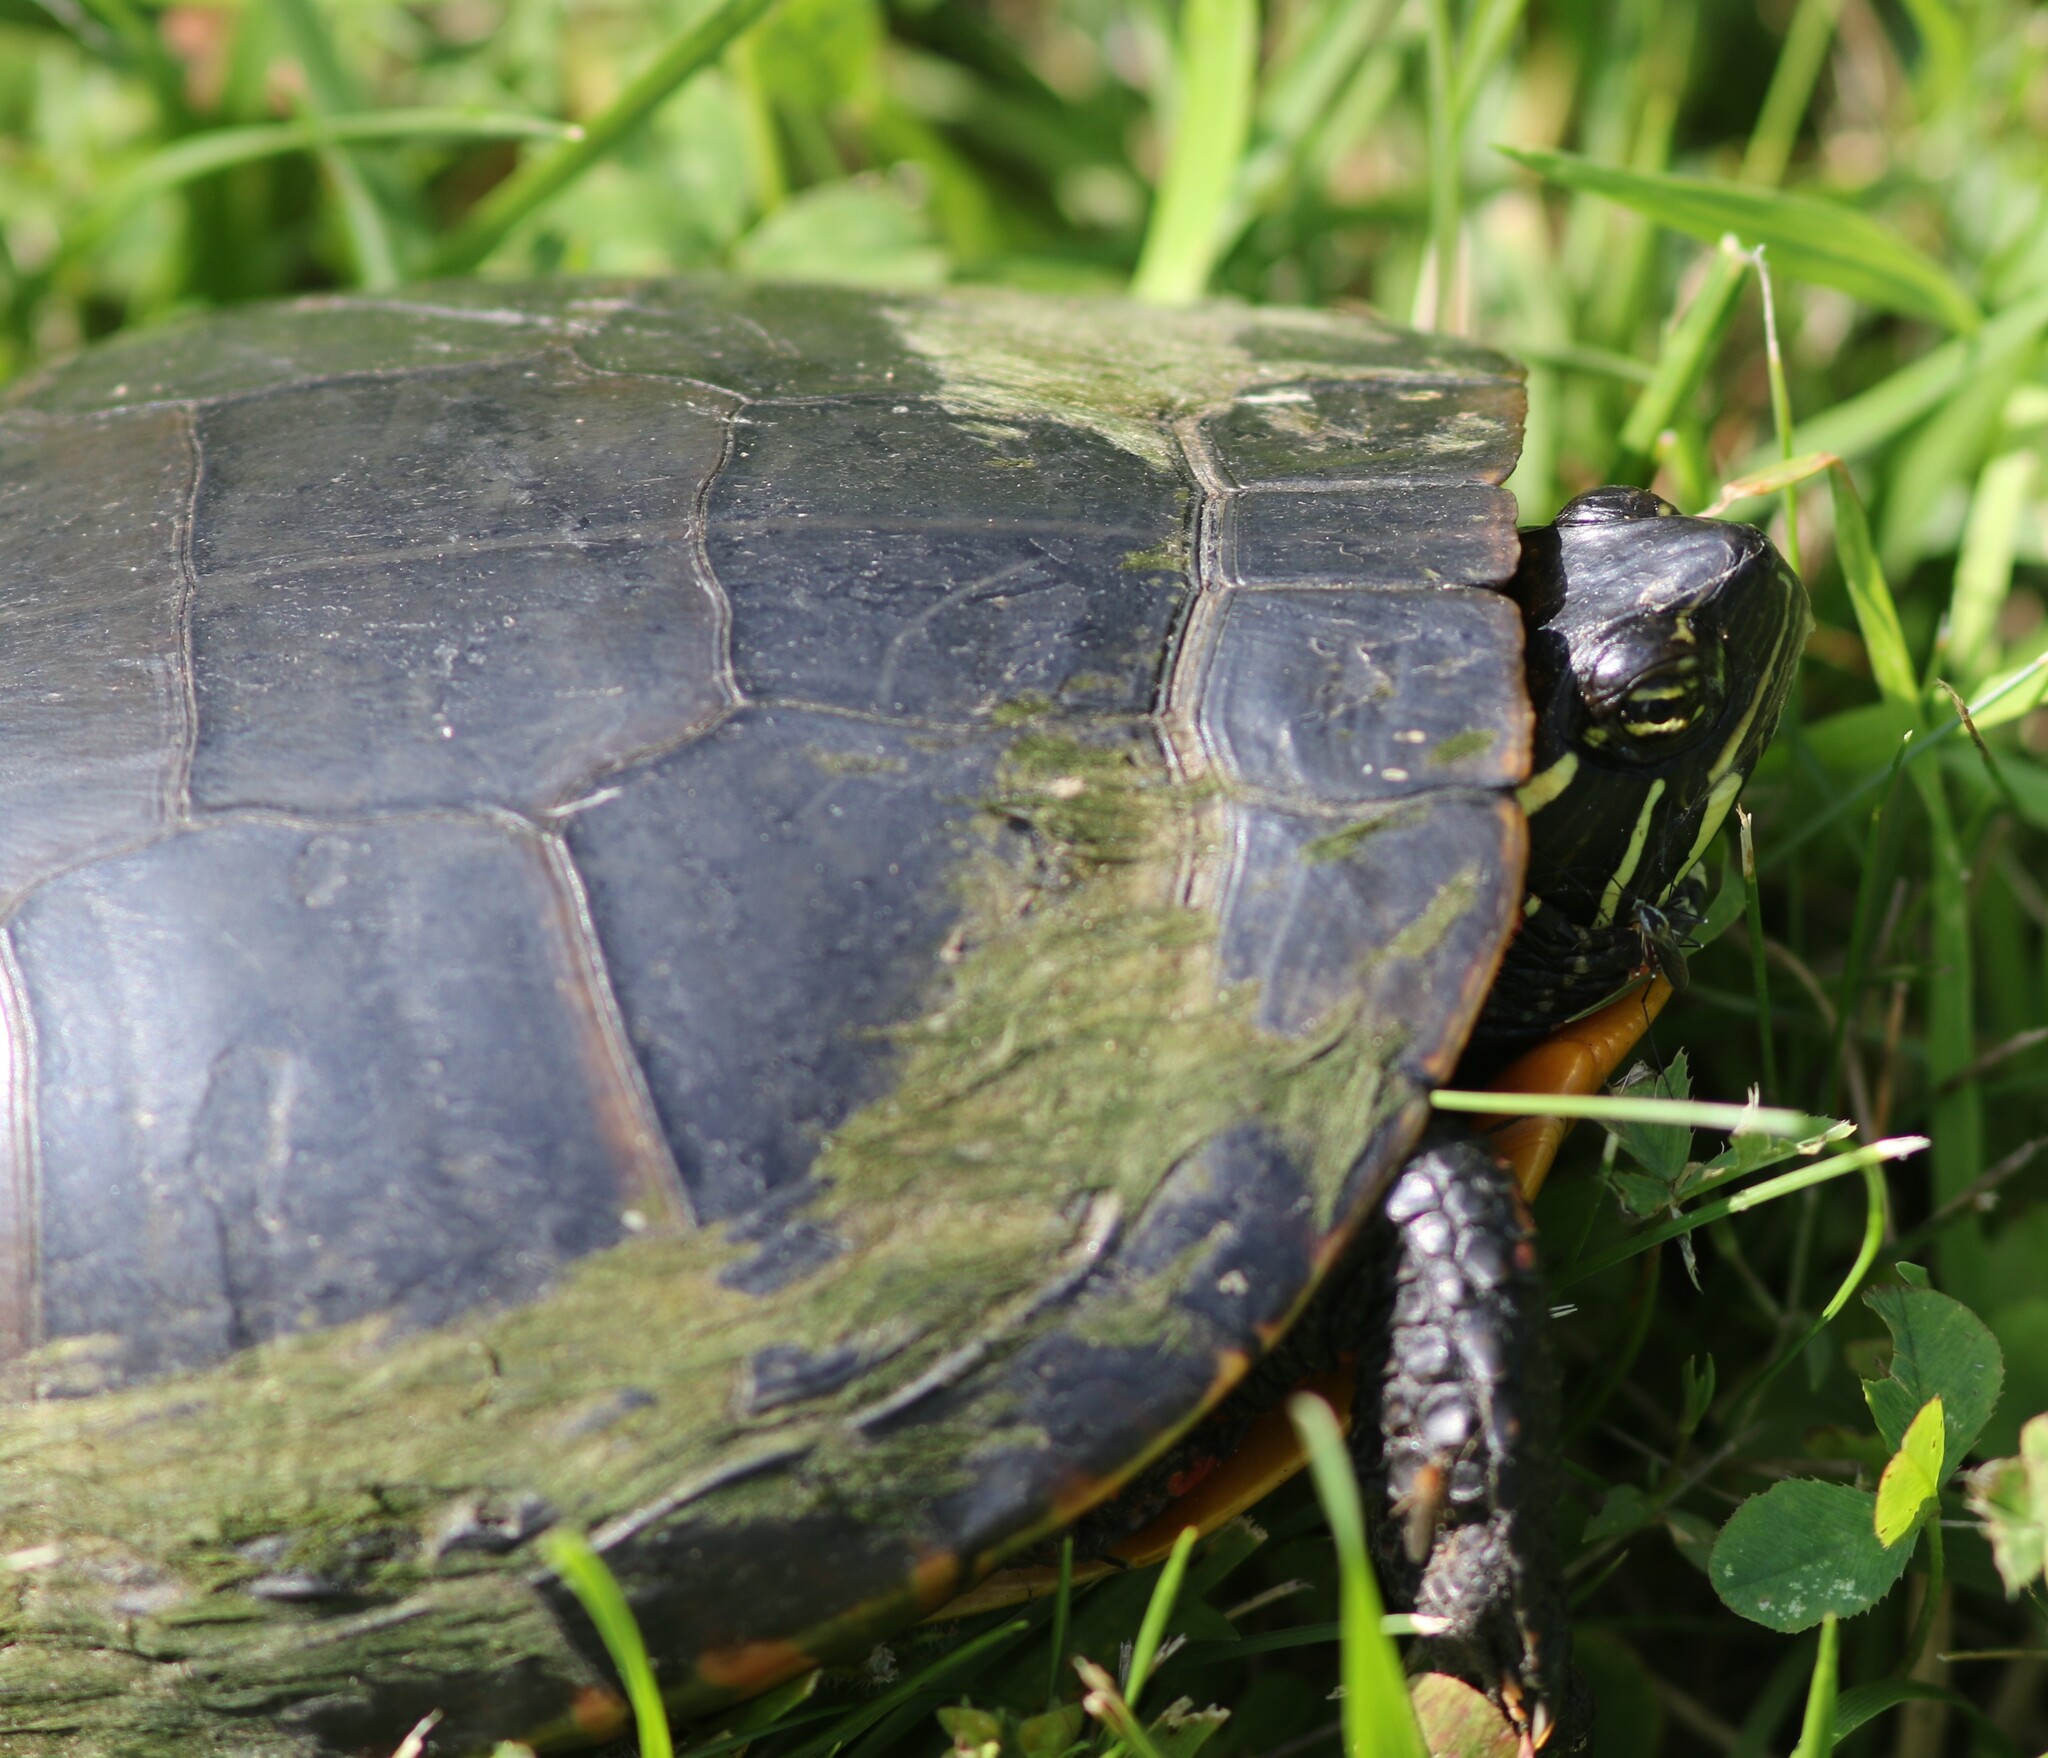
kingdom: Animalia
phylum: Chordata
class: Testudines
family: Emydidae
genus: Chrysemys
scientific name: Chrysemys picta
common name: Painted turtle
